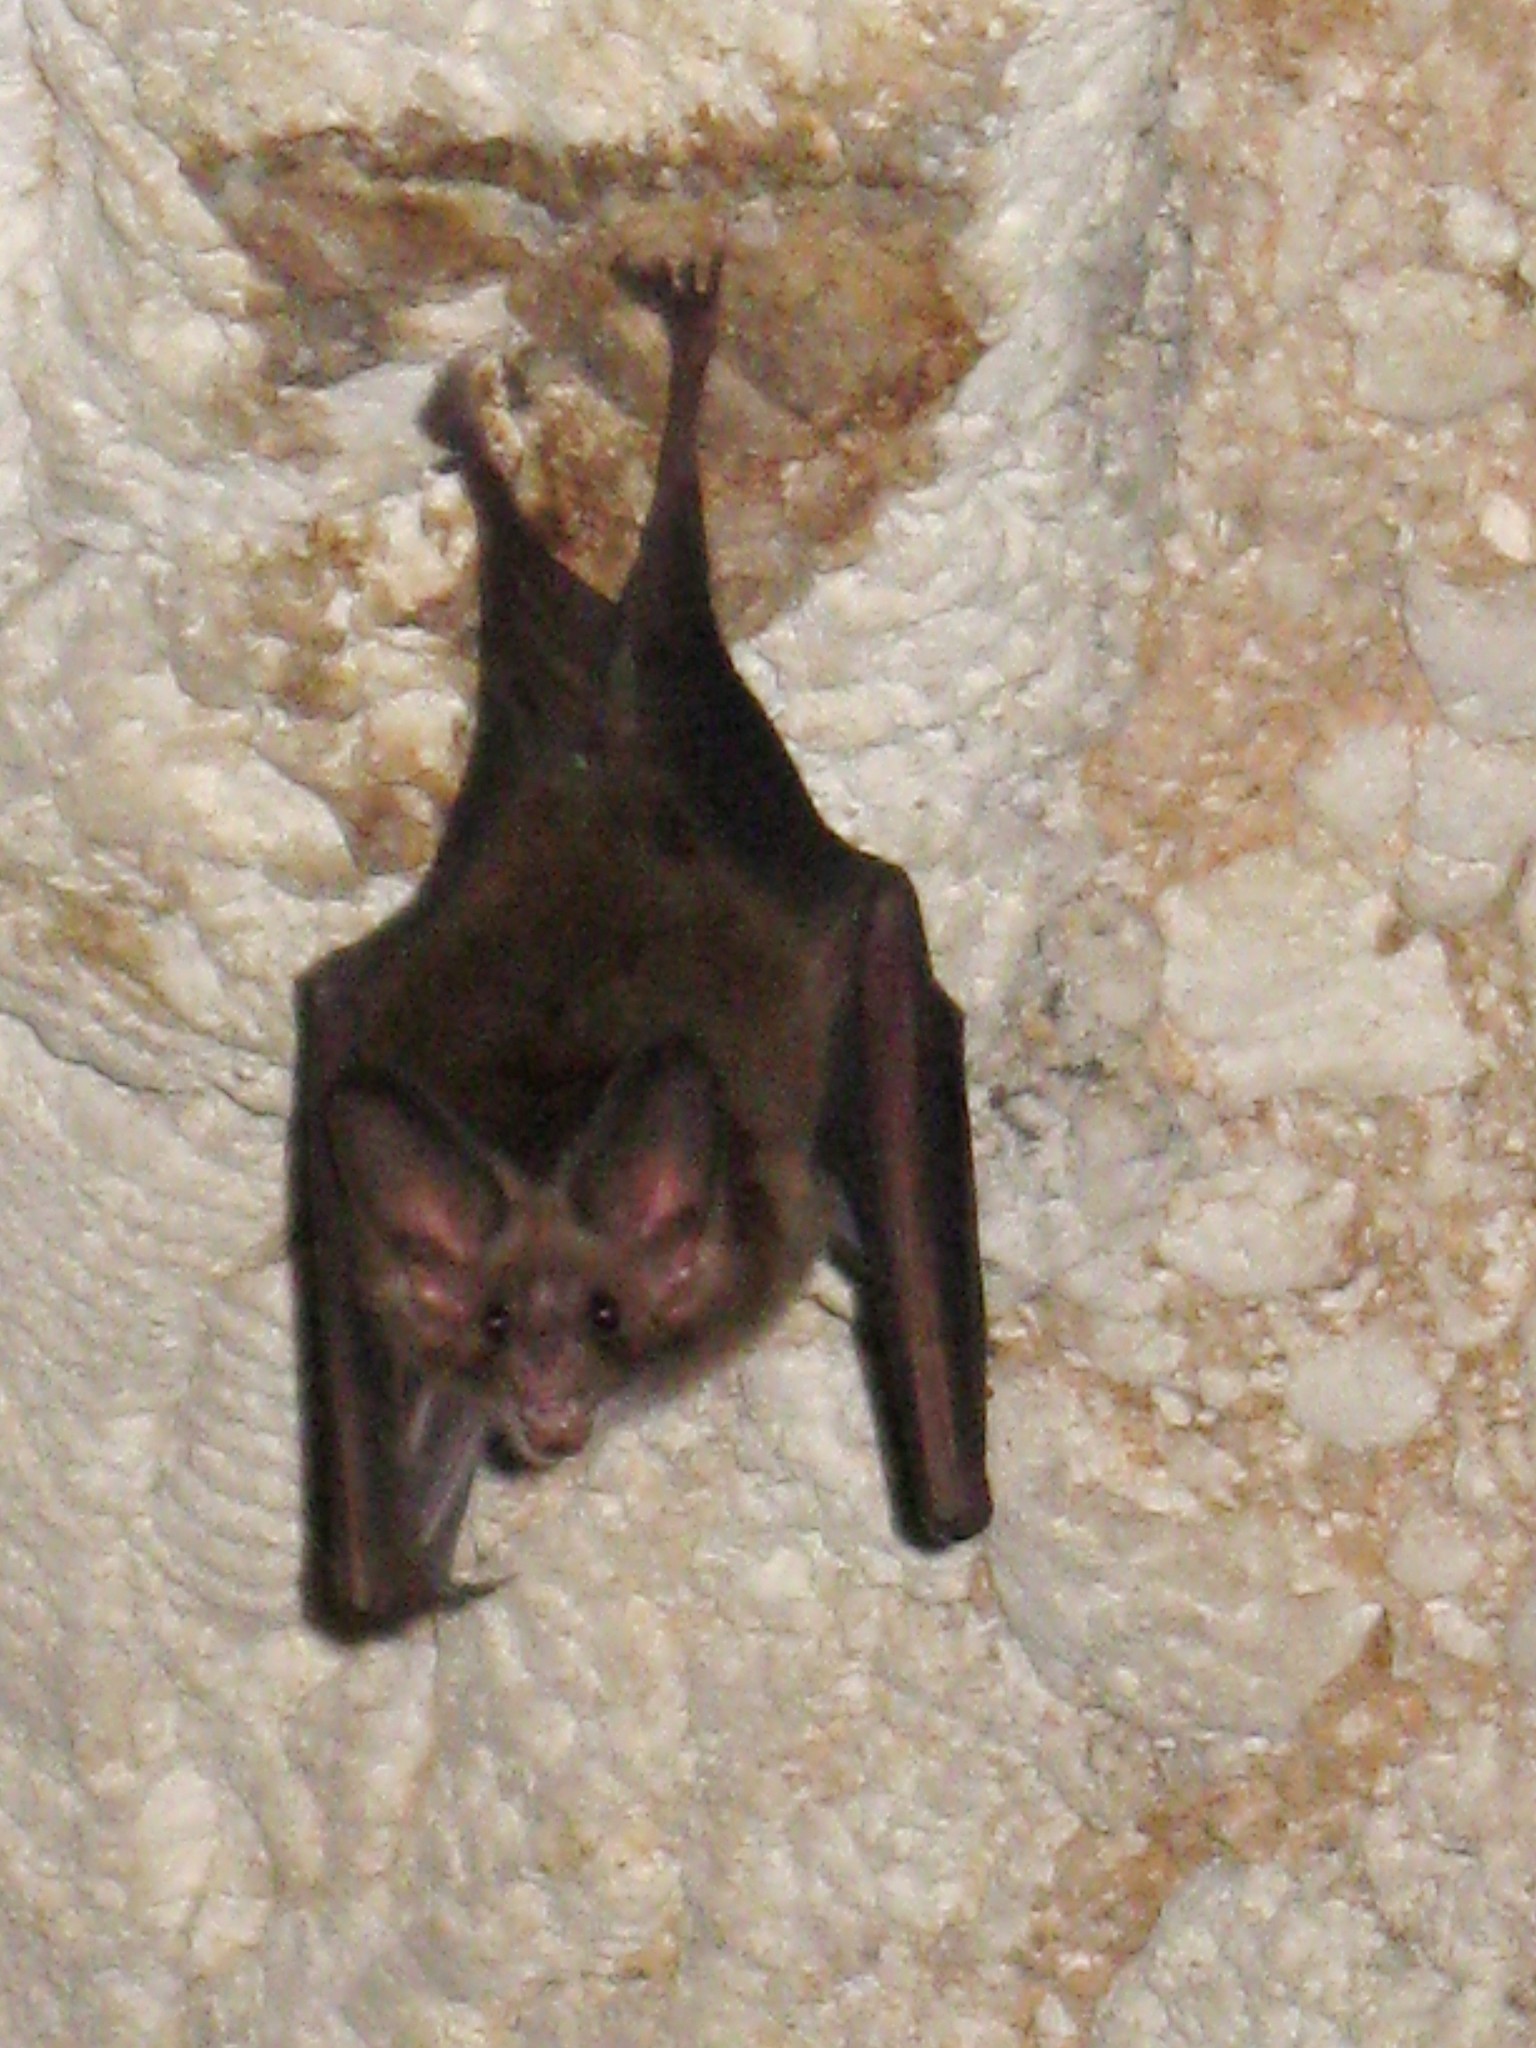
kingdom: Animalia
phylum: Chordata
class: Mammalia
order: Chiroptera
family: Phyllostomidae
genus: Macrotus
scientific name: Macrotus waterhousii
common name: Waterhouse's leaf-nosed bat
